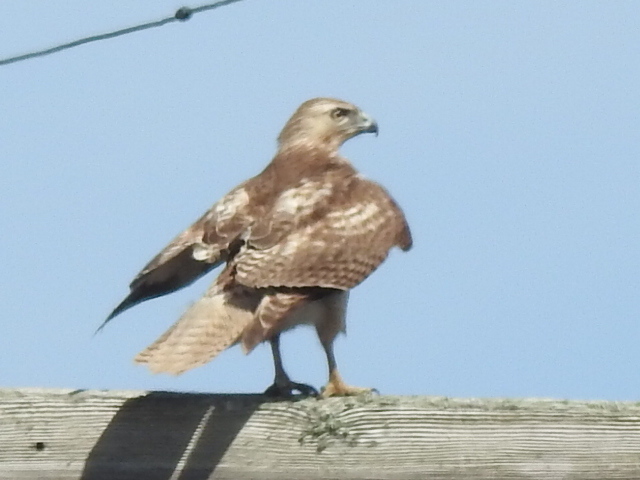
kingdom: Animalia
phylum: Chordata
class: Aves
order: Accipitriformes
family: Accipitridae
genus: Buteo
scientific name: Buteo jamaicensis
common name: Red-tailed hawk
